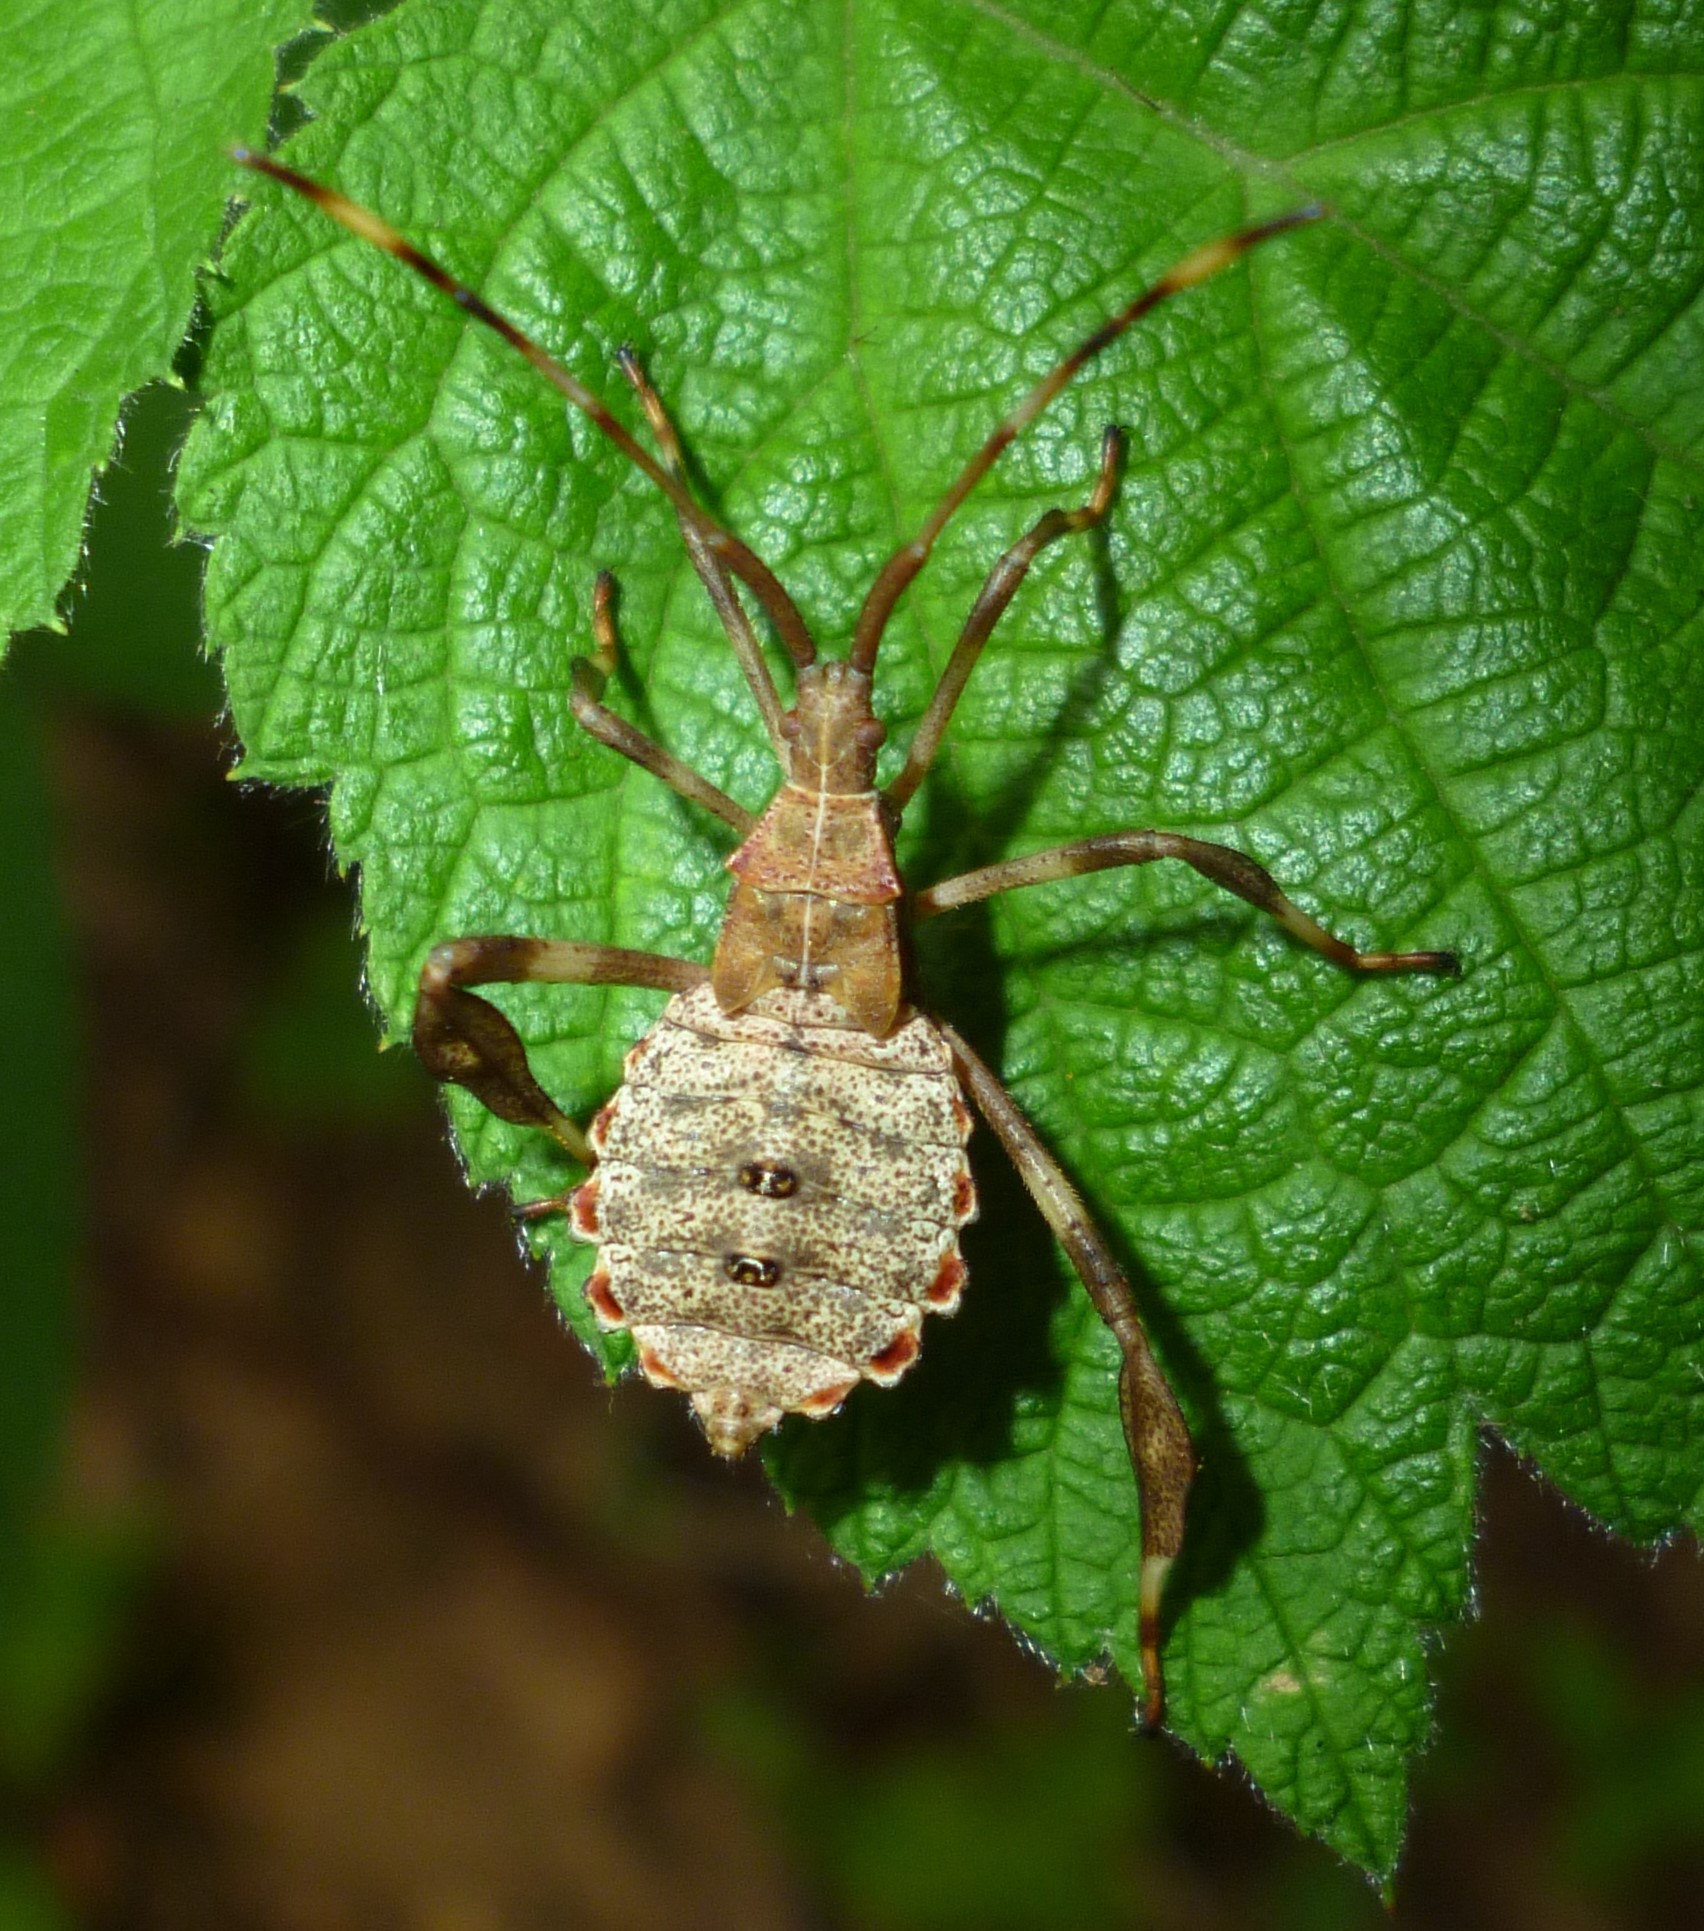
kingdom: Animalia
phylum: Arthropoda
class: Insecta
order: Hemiptera
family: Coreidae
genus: Acanthocephala
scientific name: Acanthocephala terminalis
